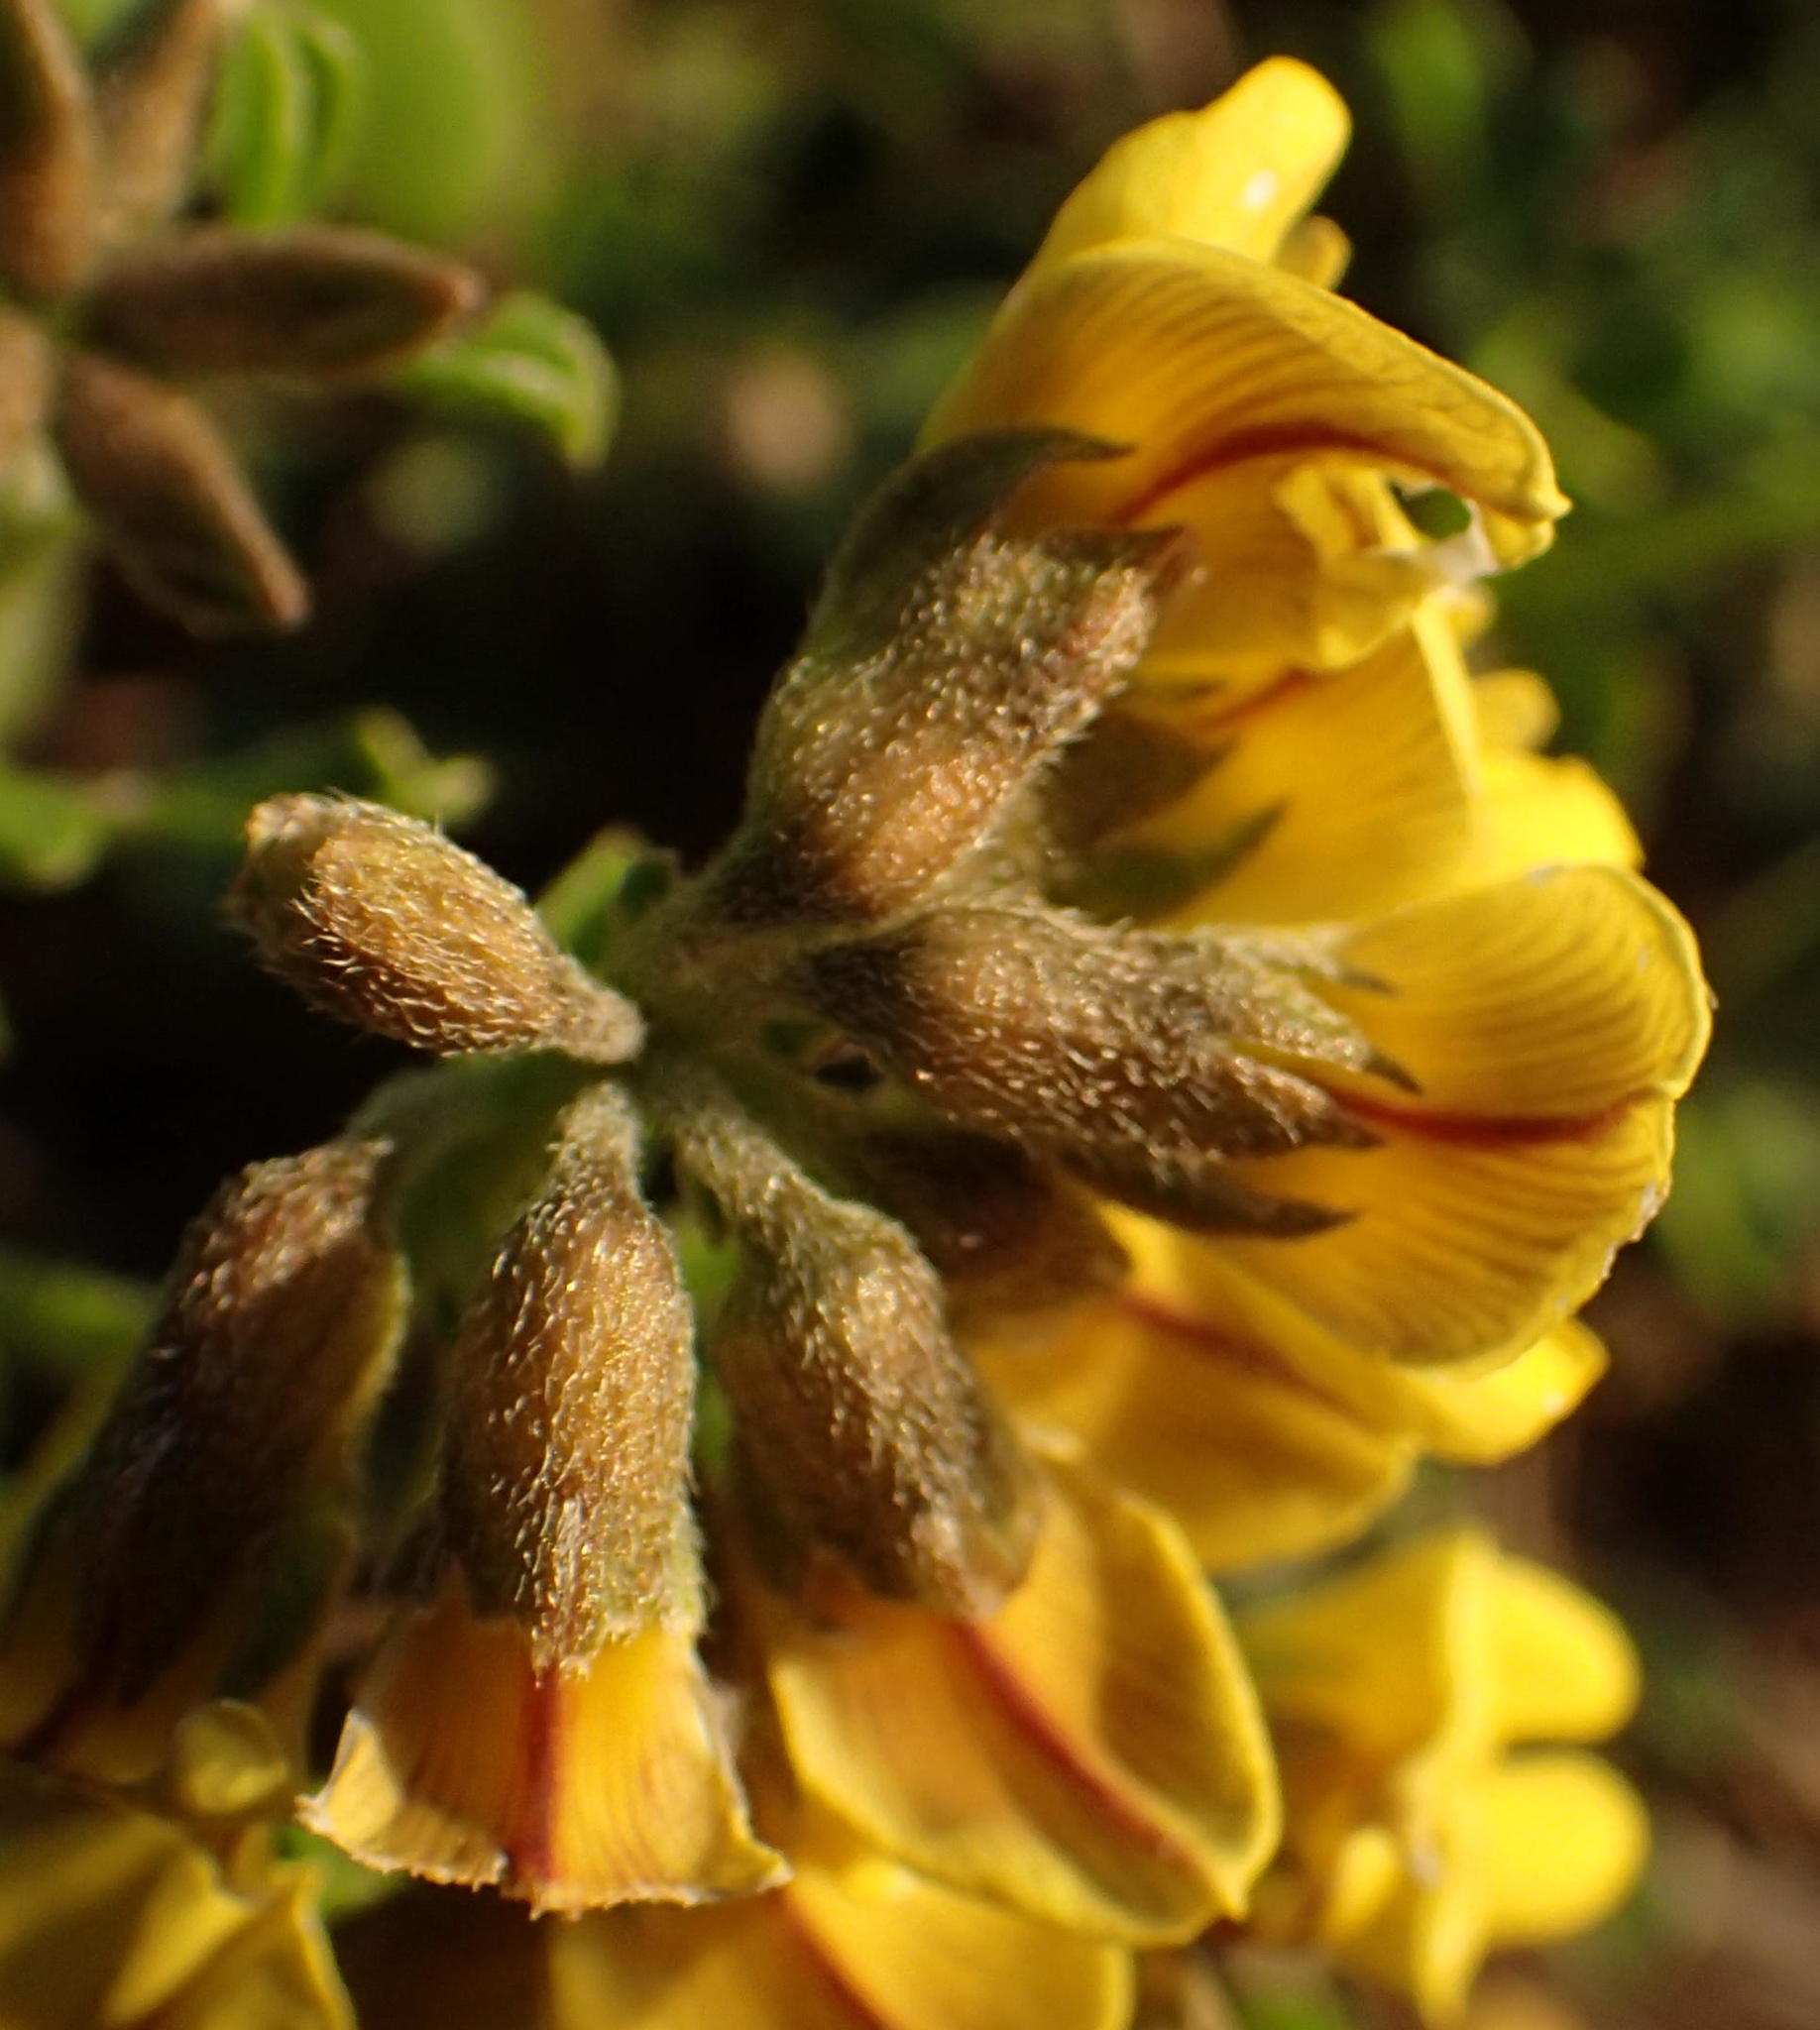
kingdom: Plantae
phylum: Tracheophyta
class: Magnoliopsida
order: Fabales
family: Fabaceae
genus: Lotononis
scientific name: Lotononis umbellata
